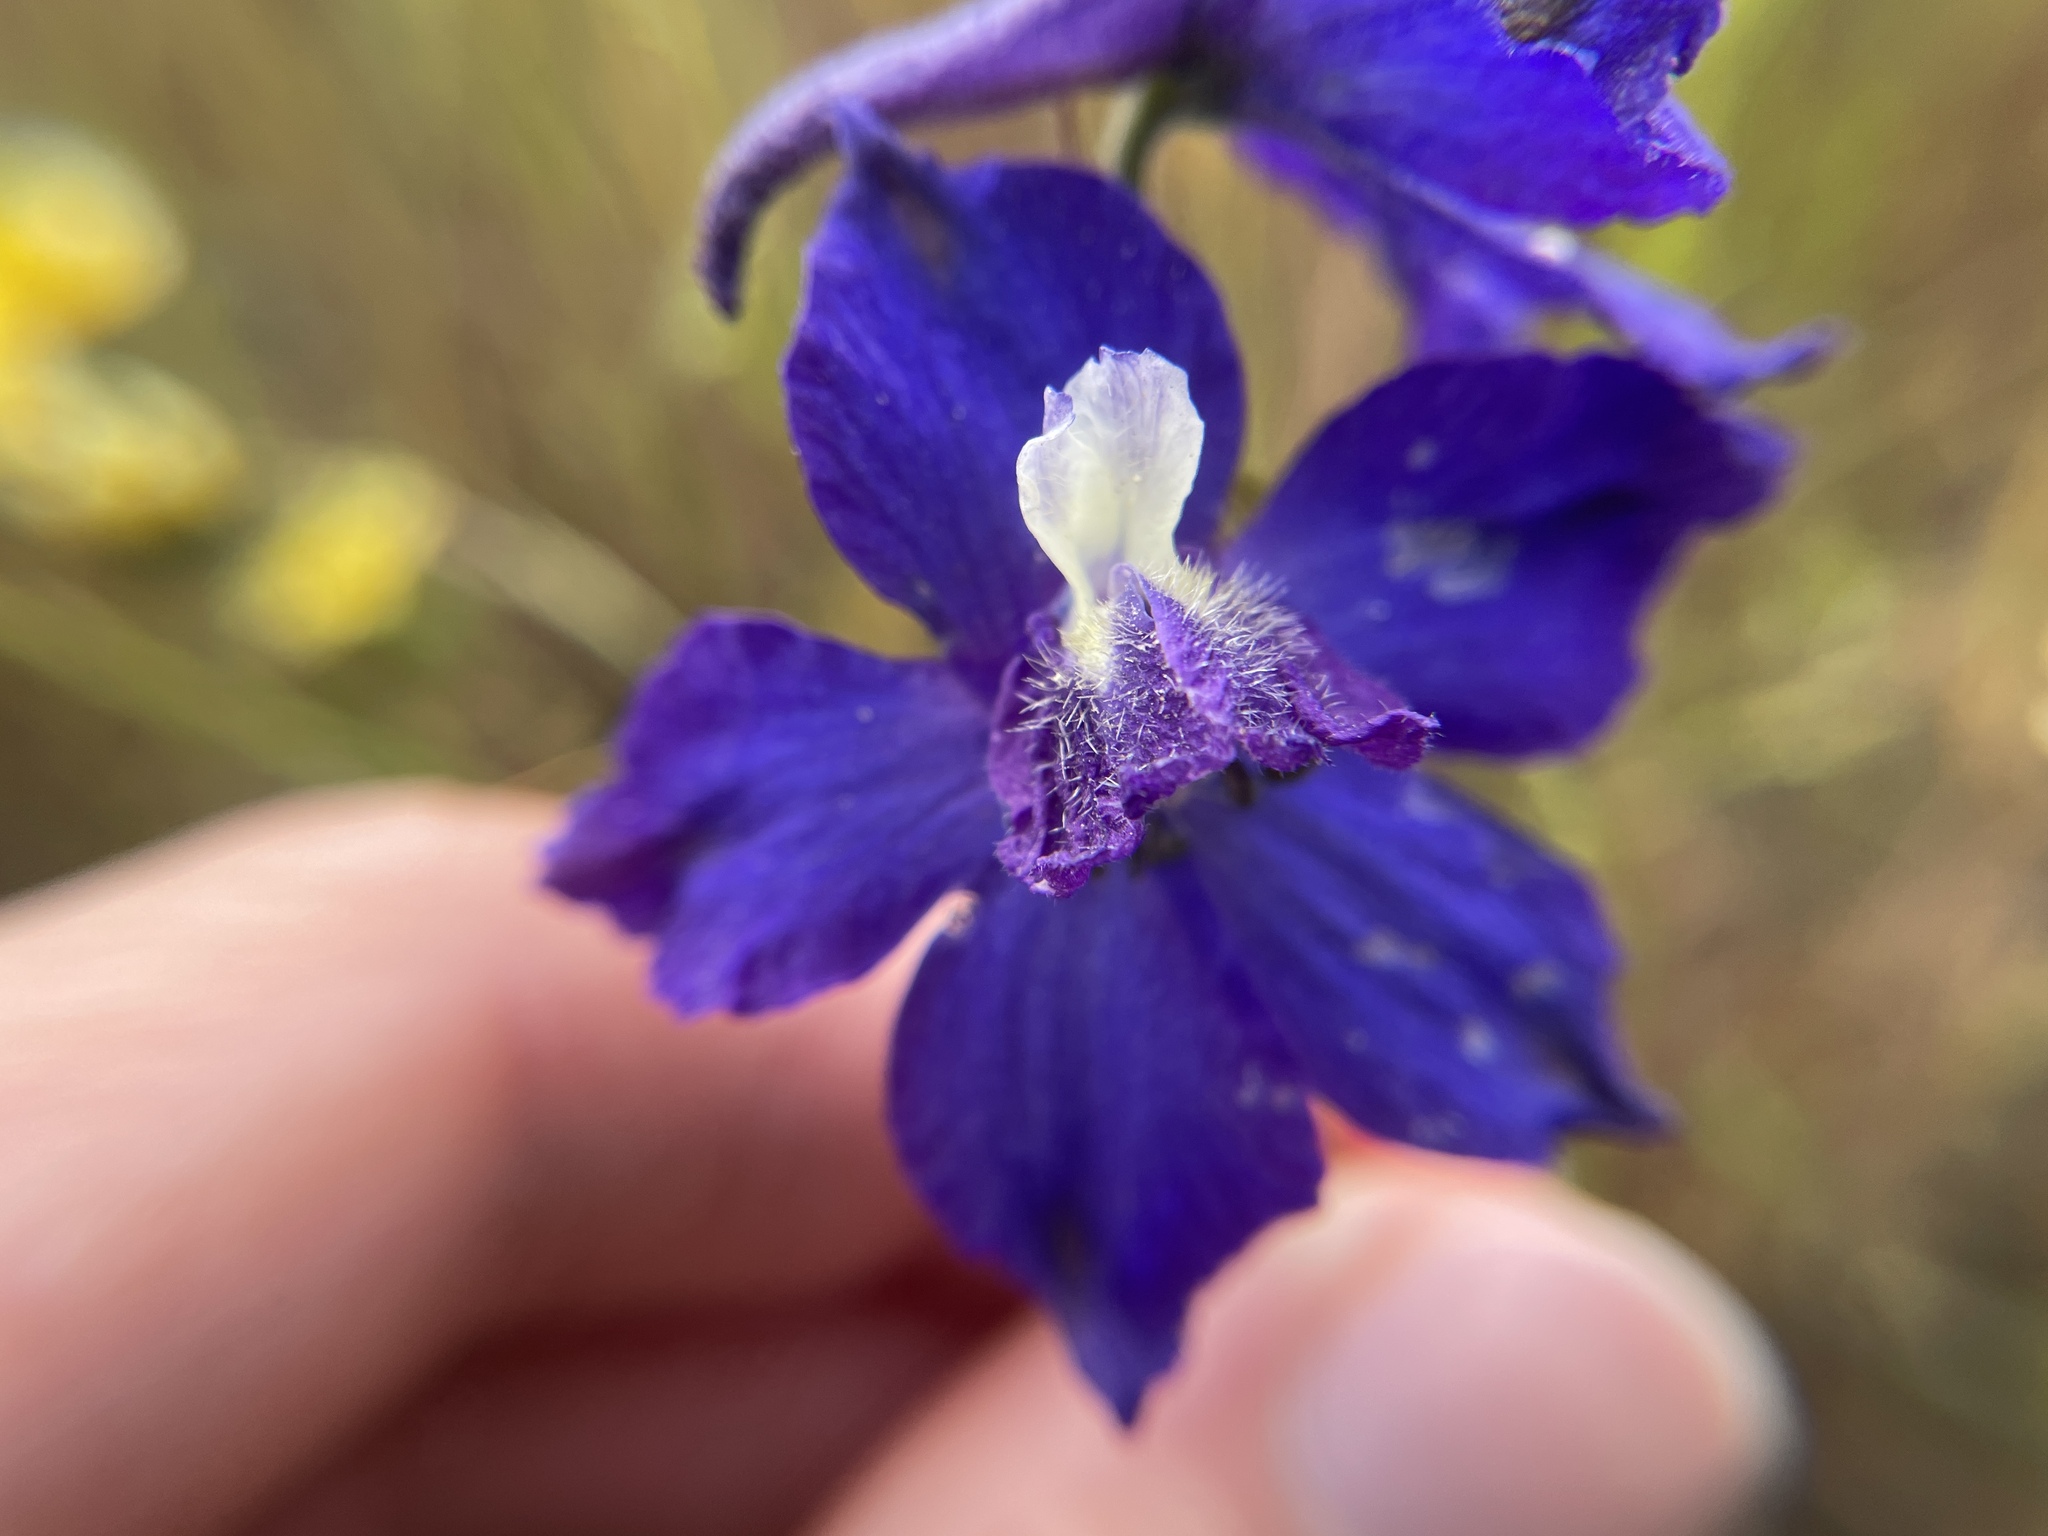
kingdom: Plantae
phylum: Tracheophyta
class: Magnoliopsida
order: Ranunculales
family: Ranunculaceae
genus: Delphinium
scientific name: Delphinium variegatum
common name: Royal larkspur
